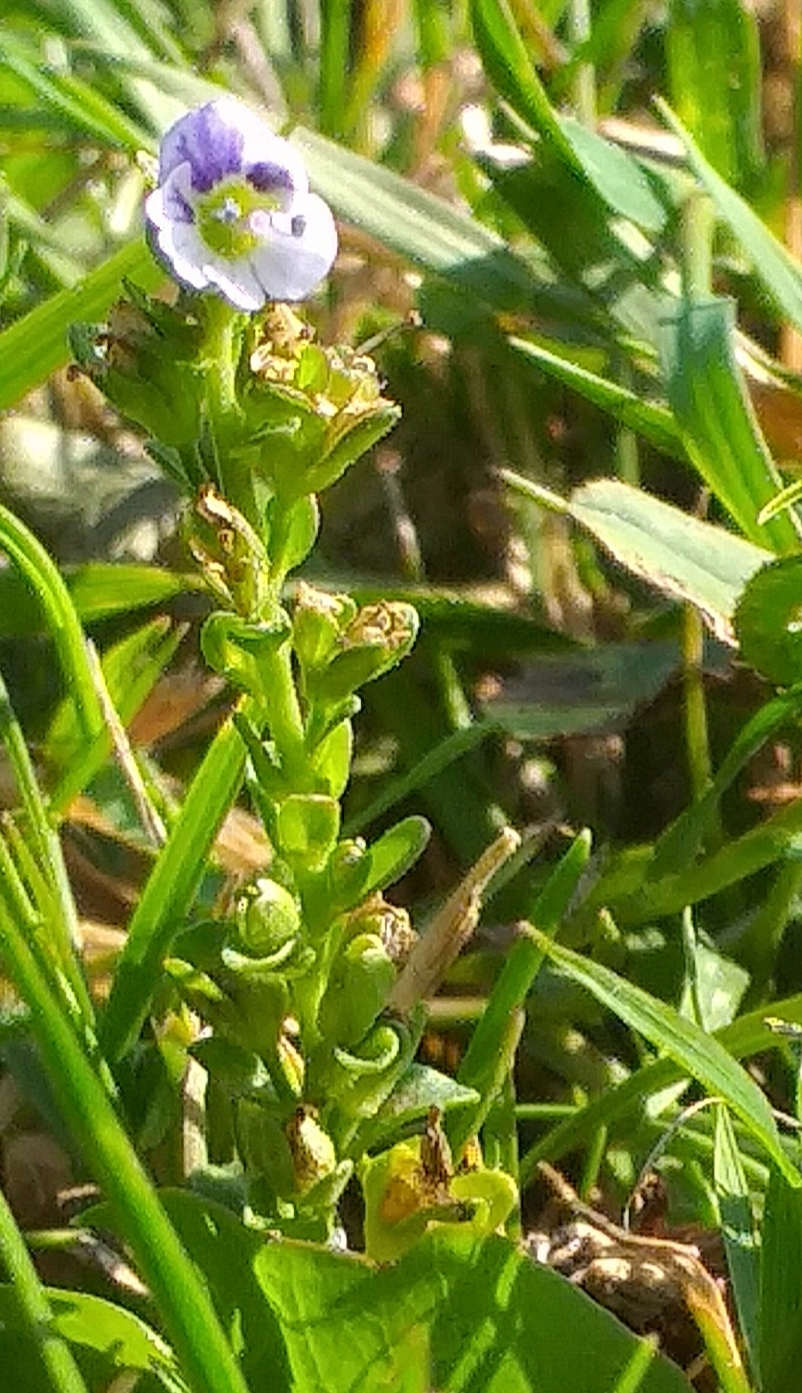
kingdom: Plantae
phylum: Tracheophyta
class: Magnoliopsida
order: Lamiales
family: Plantaginaceae
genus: Veronica
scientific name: Veronica serpyllifolia
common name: Thyme-leaved speedwell
